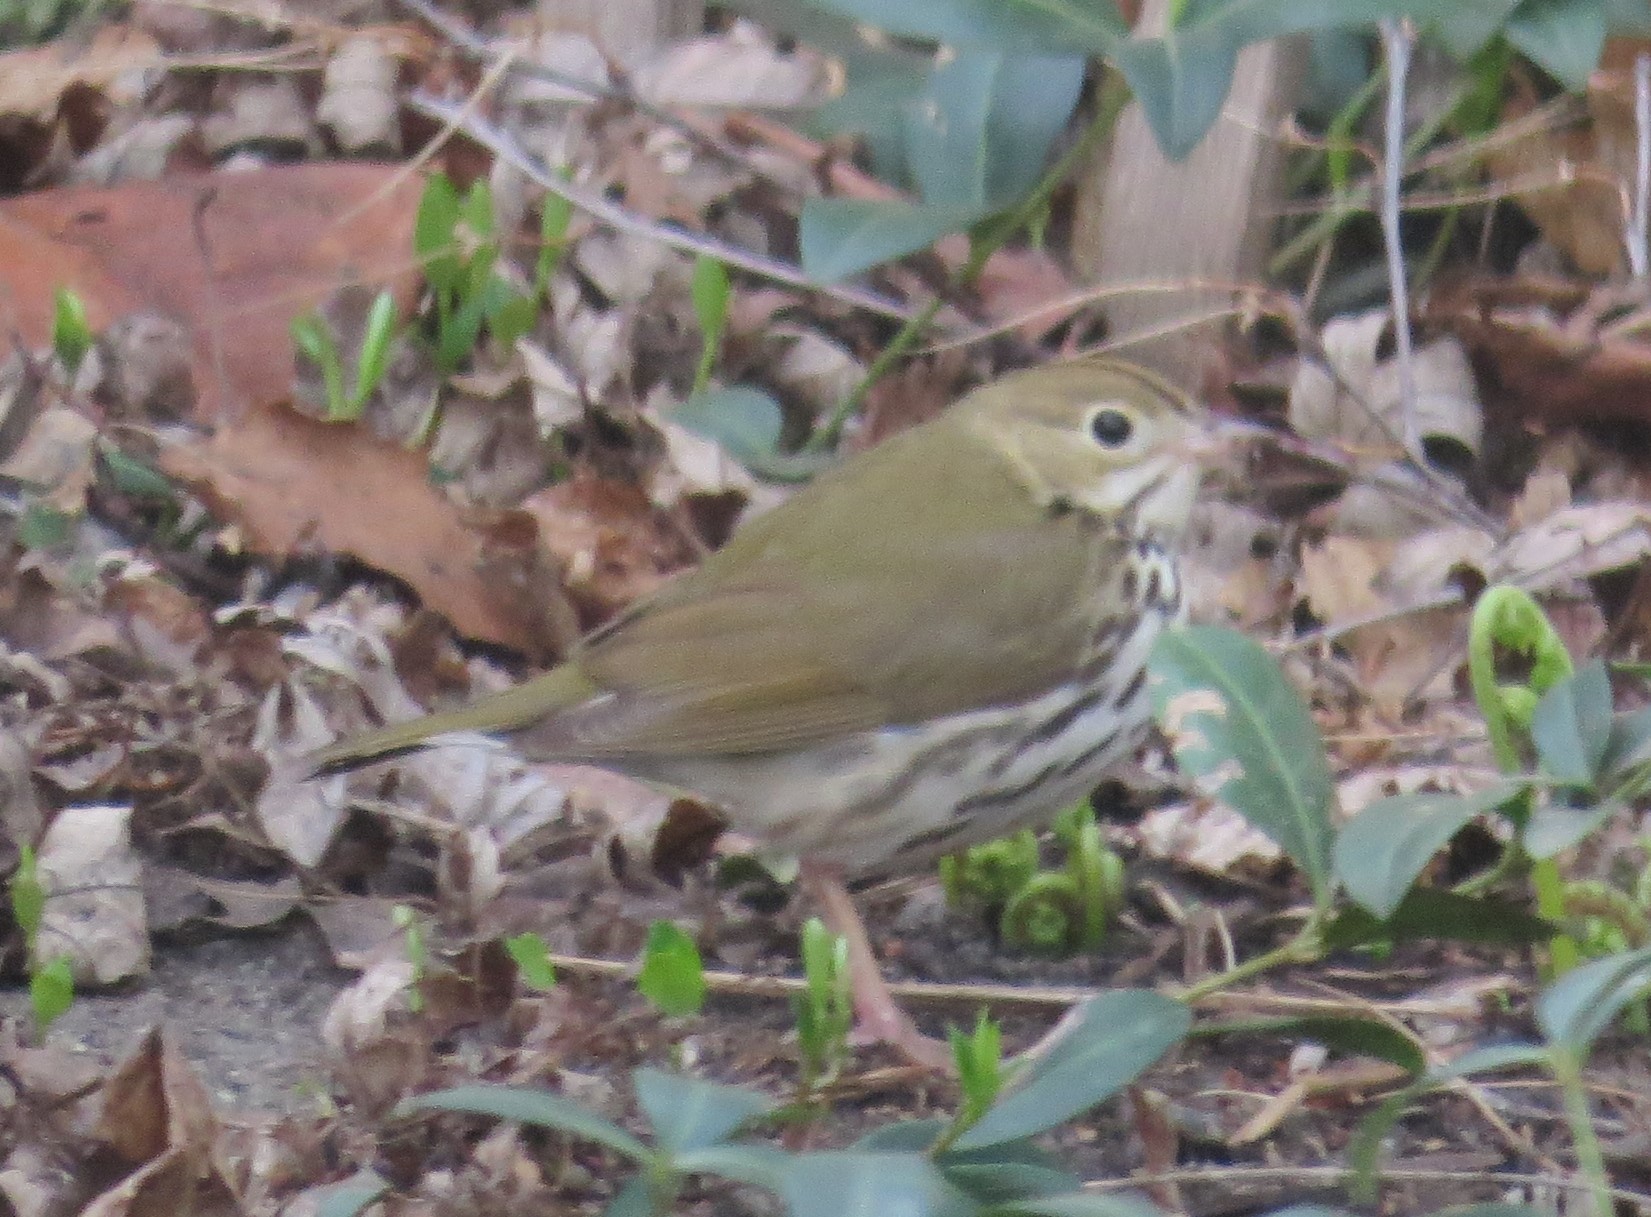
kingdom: Animalia
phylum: Chordata
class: Aves
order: Passeriformes
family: Parulidae
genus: Seiurus
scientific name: Seiurus aurocapilla
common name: Ovenbird
